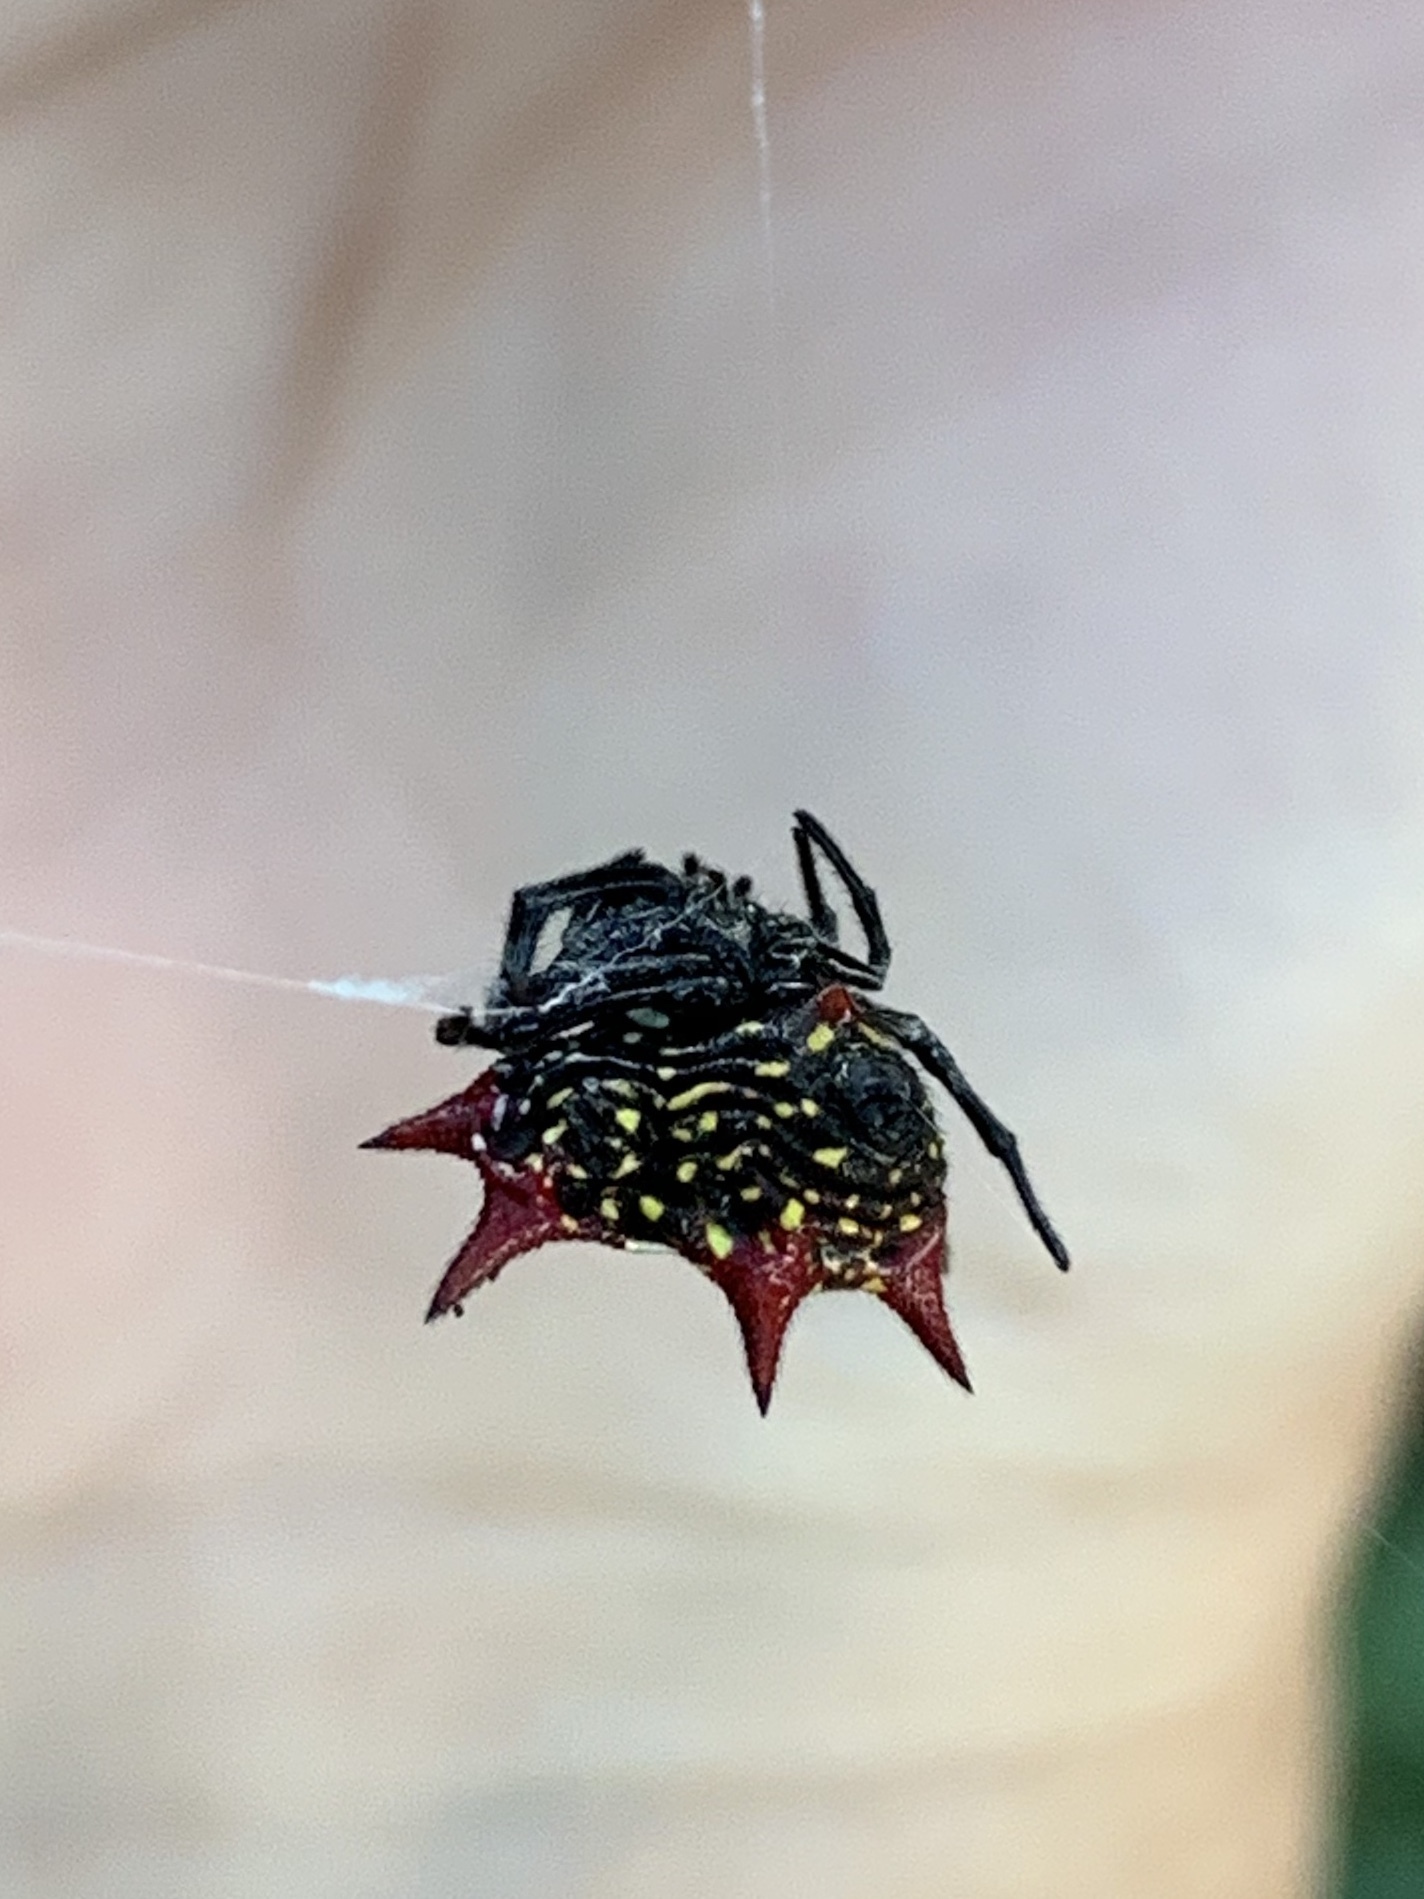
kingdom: Animalia
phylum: Arthropoda
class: Arachnida
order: Araneae
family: Araneidae
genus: Gasteracantha
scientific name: Gasteracantha cancriformis
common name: Orb weavers
